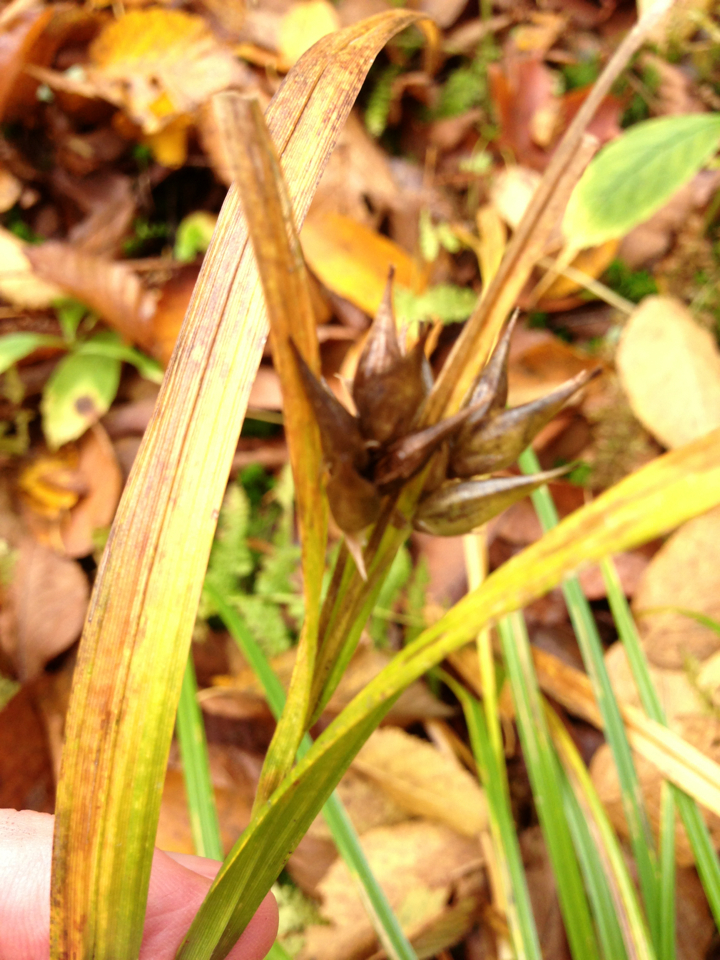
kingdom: Plantae
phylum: Tracheophyta
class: Liliopsida
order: Poales
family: Cyperaceae
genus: Carex
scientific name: Carex intumescens
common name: Greater bladder sedge
